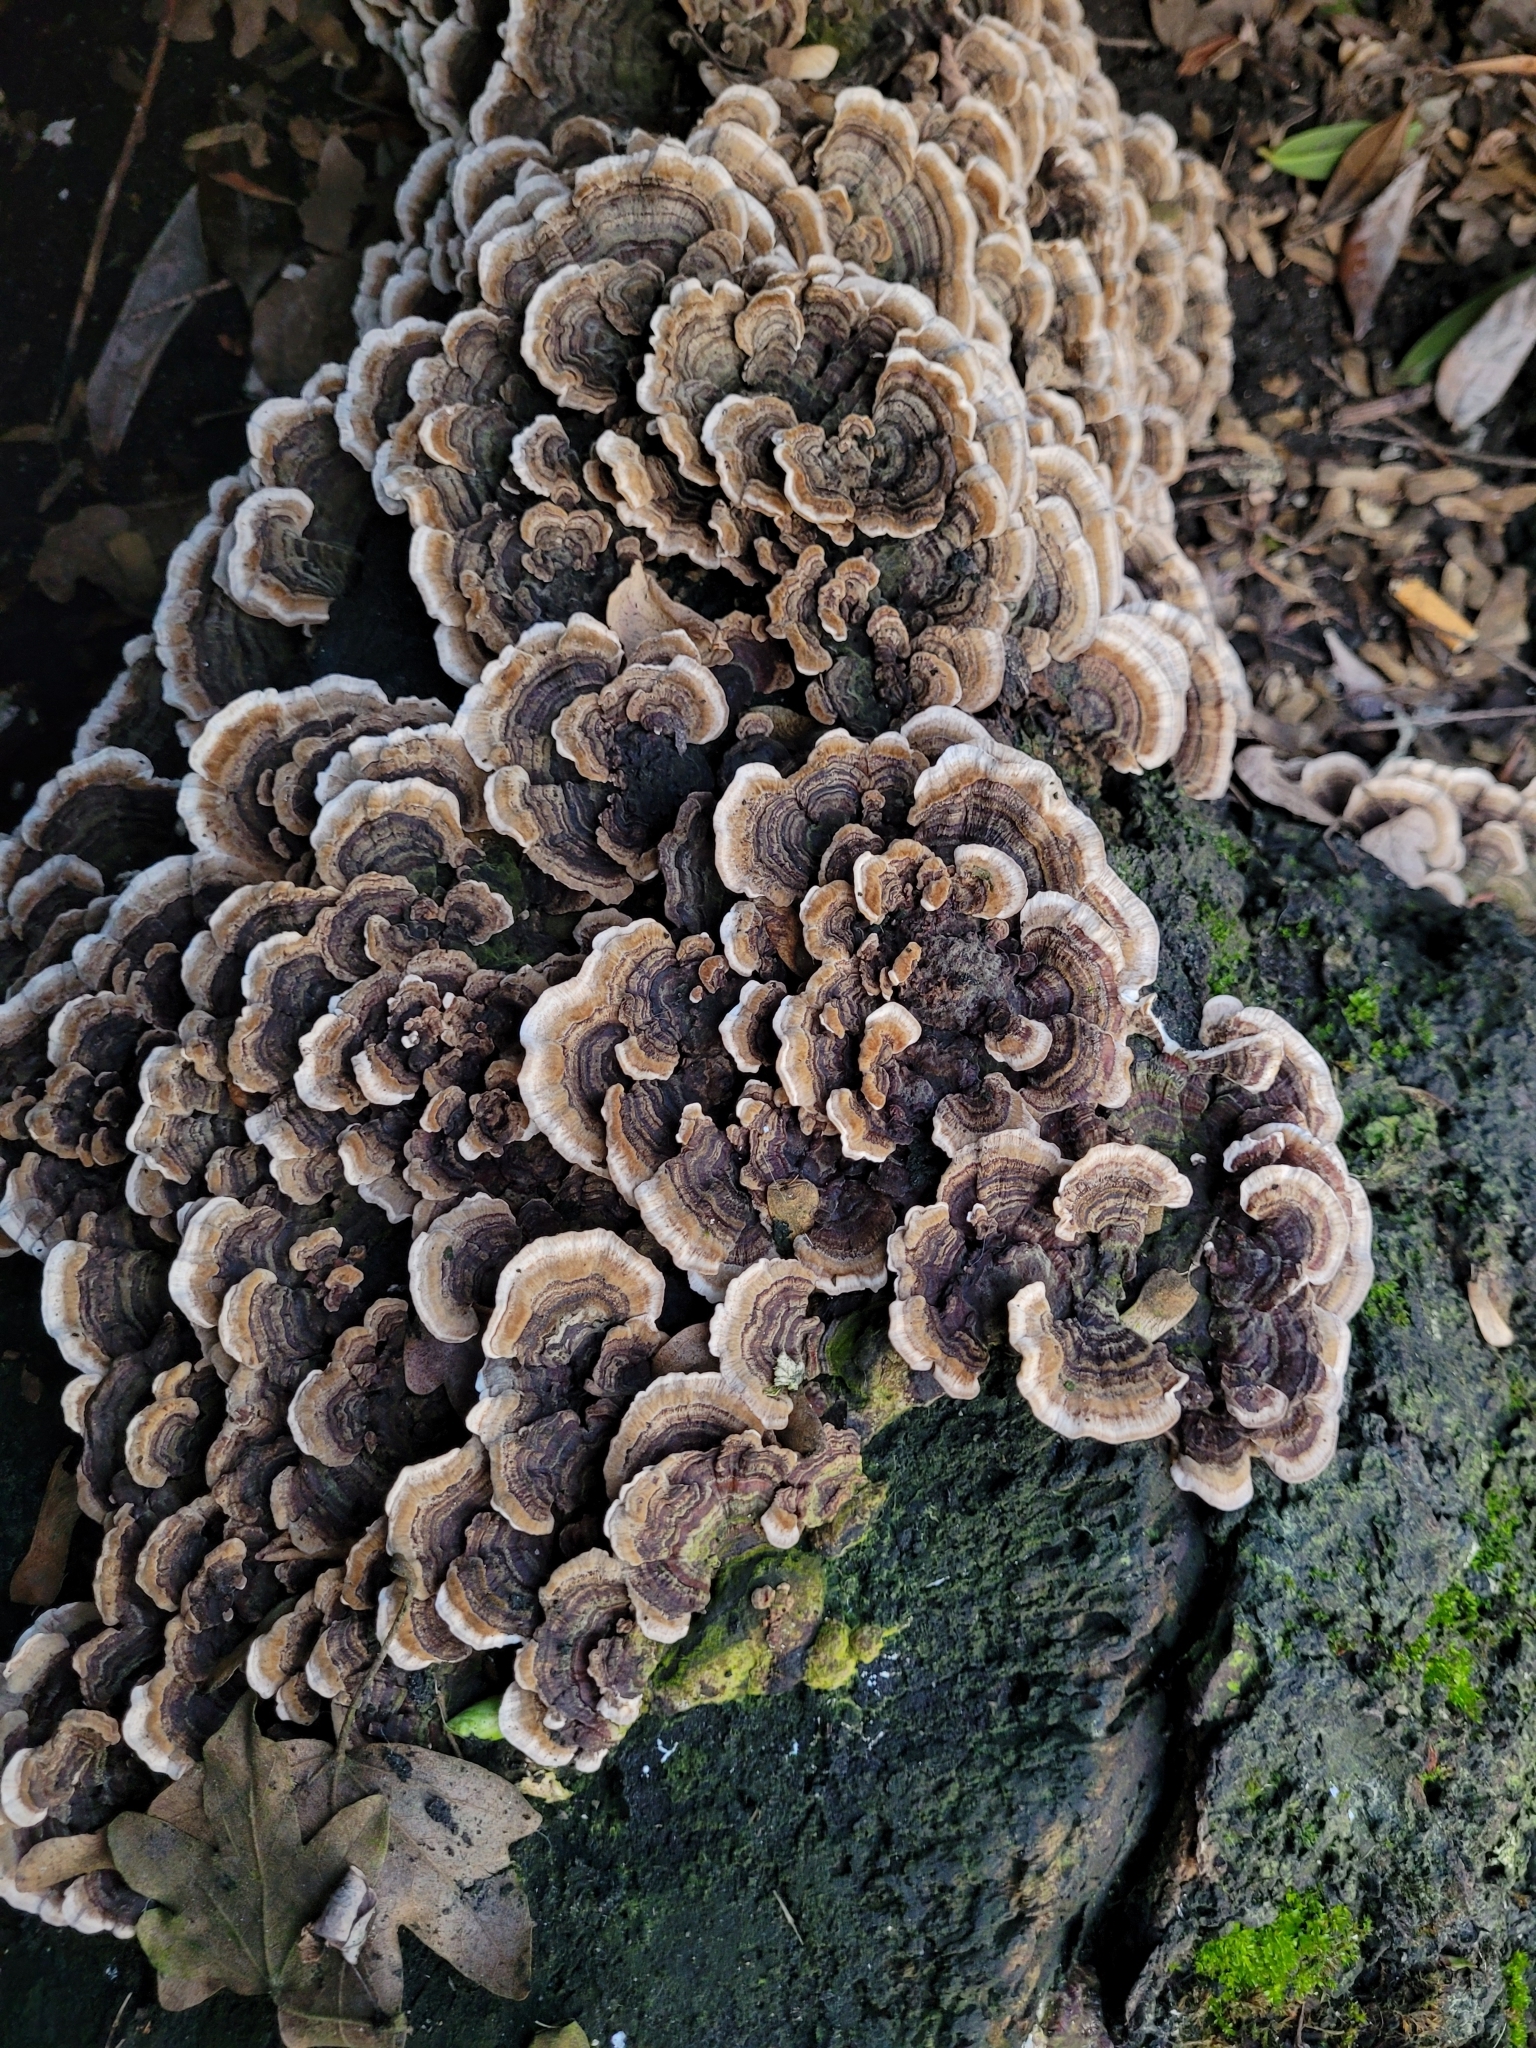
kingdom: Fungi
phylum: Basidiomycota
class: Agaricomycetes
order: Polyporales
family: Polyporaceae
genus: Trametes
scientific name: Trametes versicolor
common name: Turkeytail
